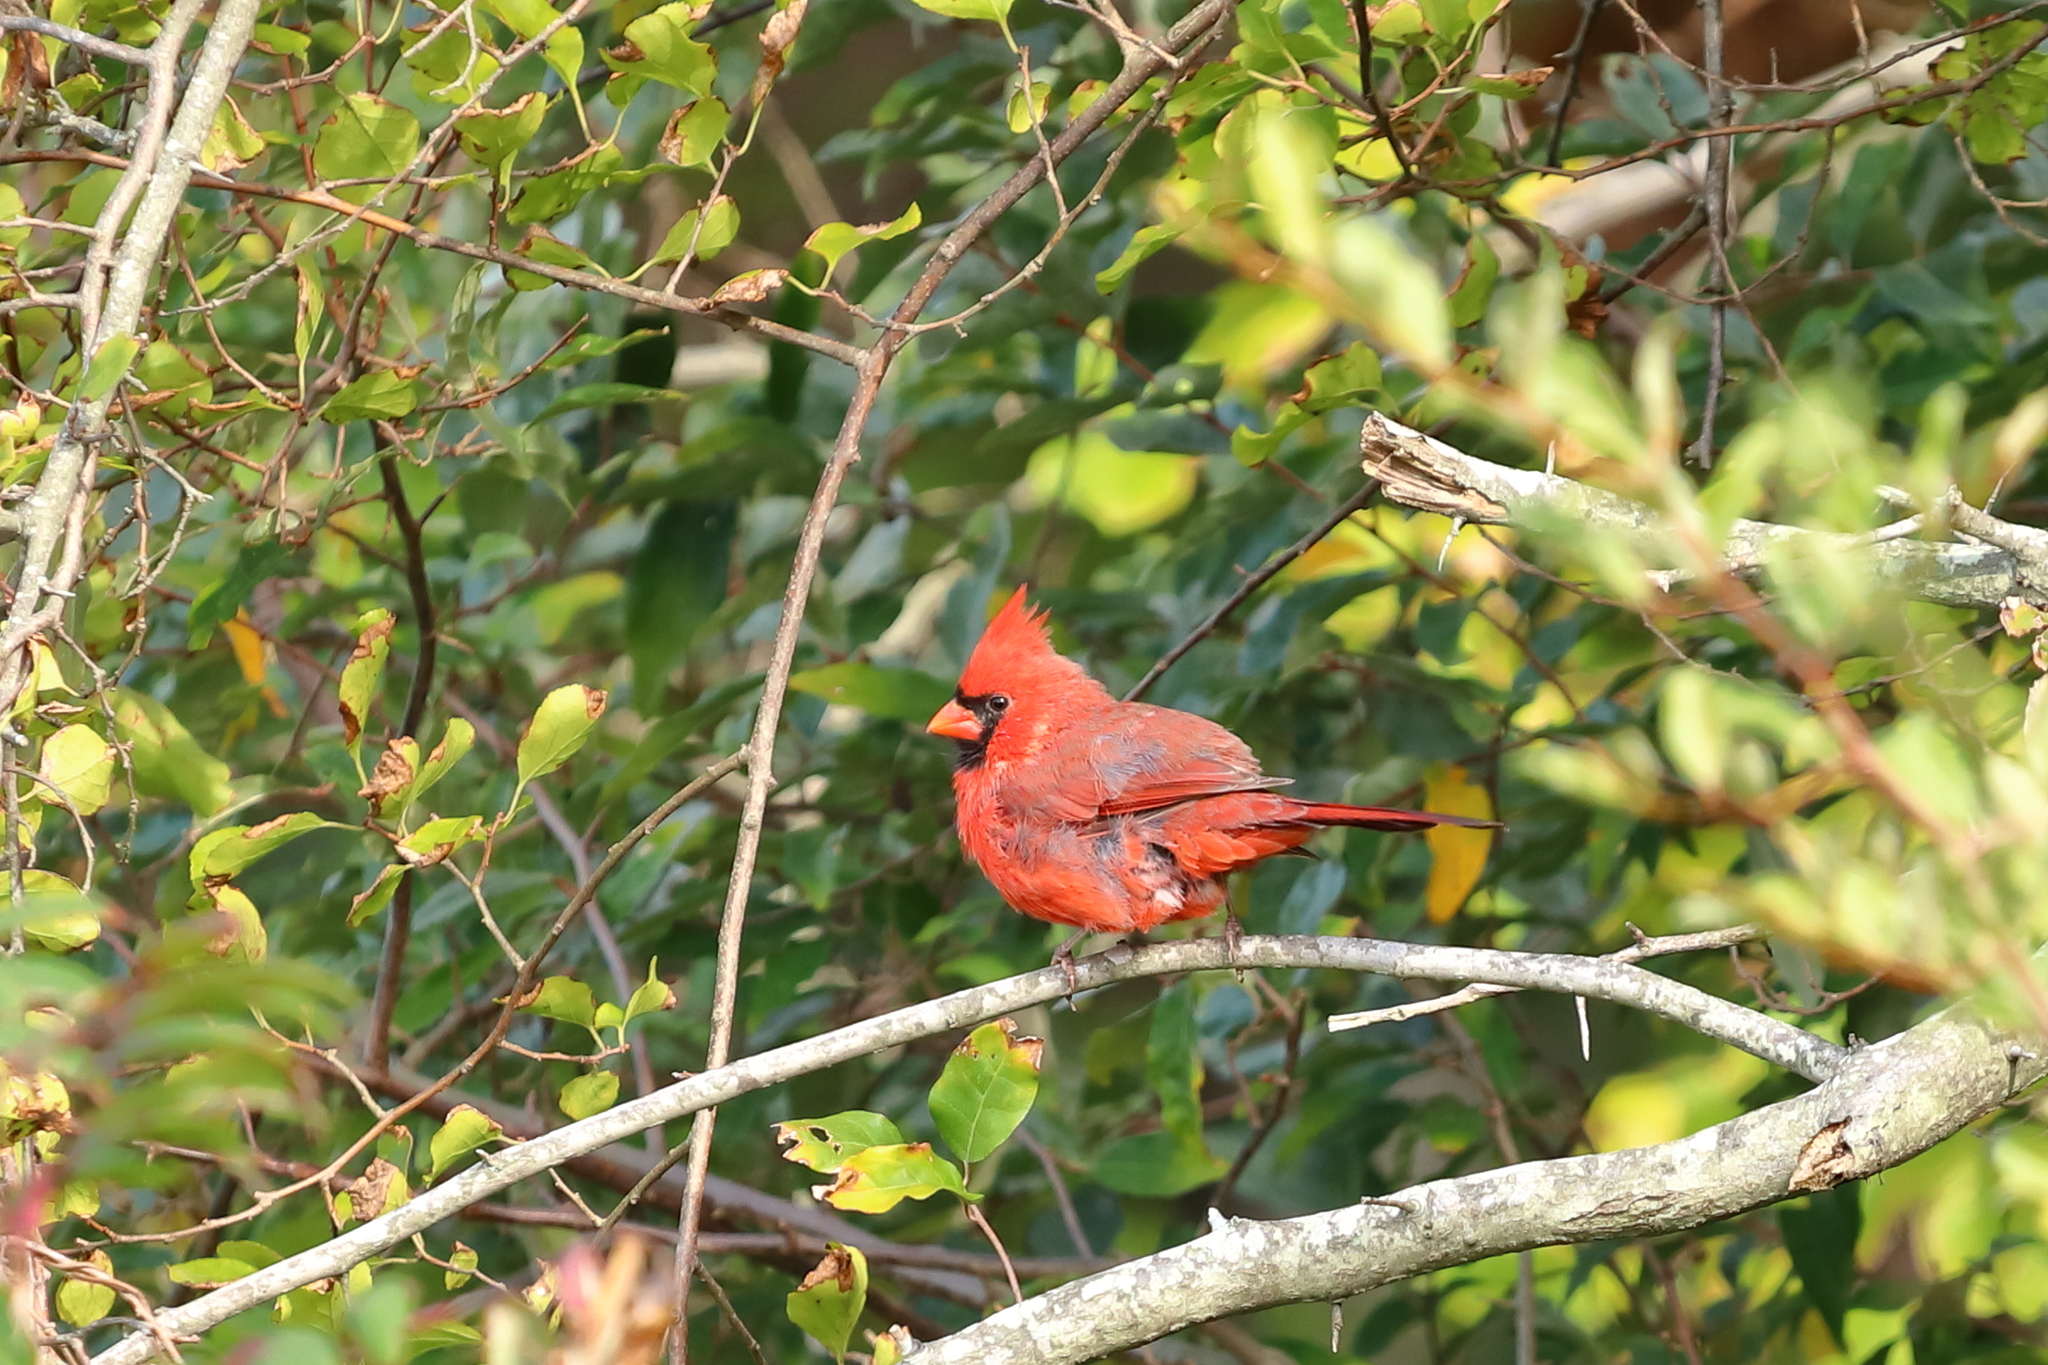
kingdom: Animalia
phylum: Chordata
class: Aves
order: Passeriformes
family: Cardinalidae
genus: Cardinalis
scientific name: Cardinalis cardinalis
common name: Northern cardinal
